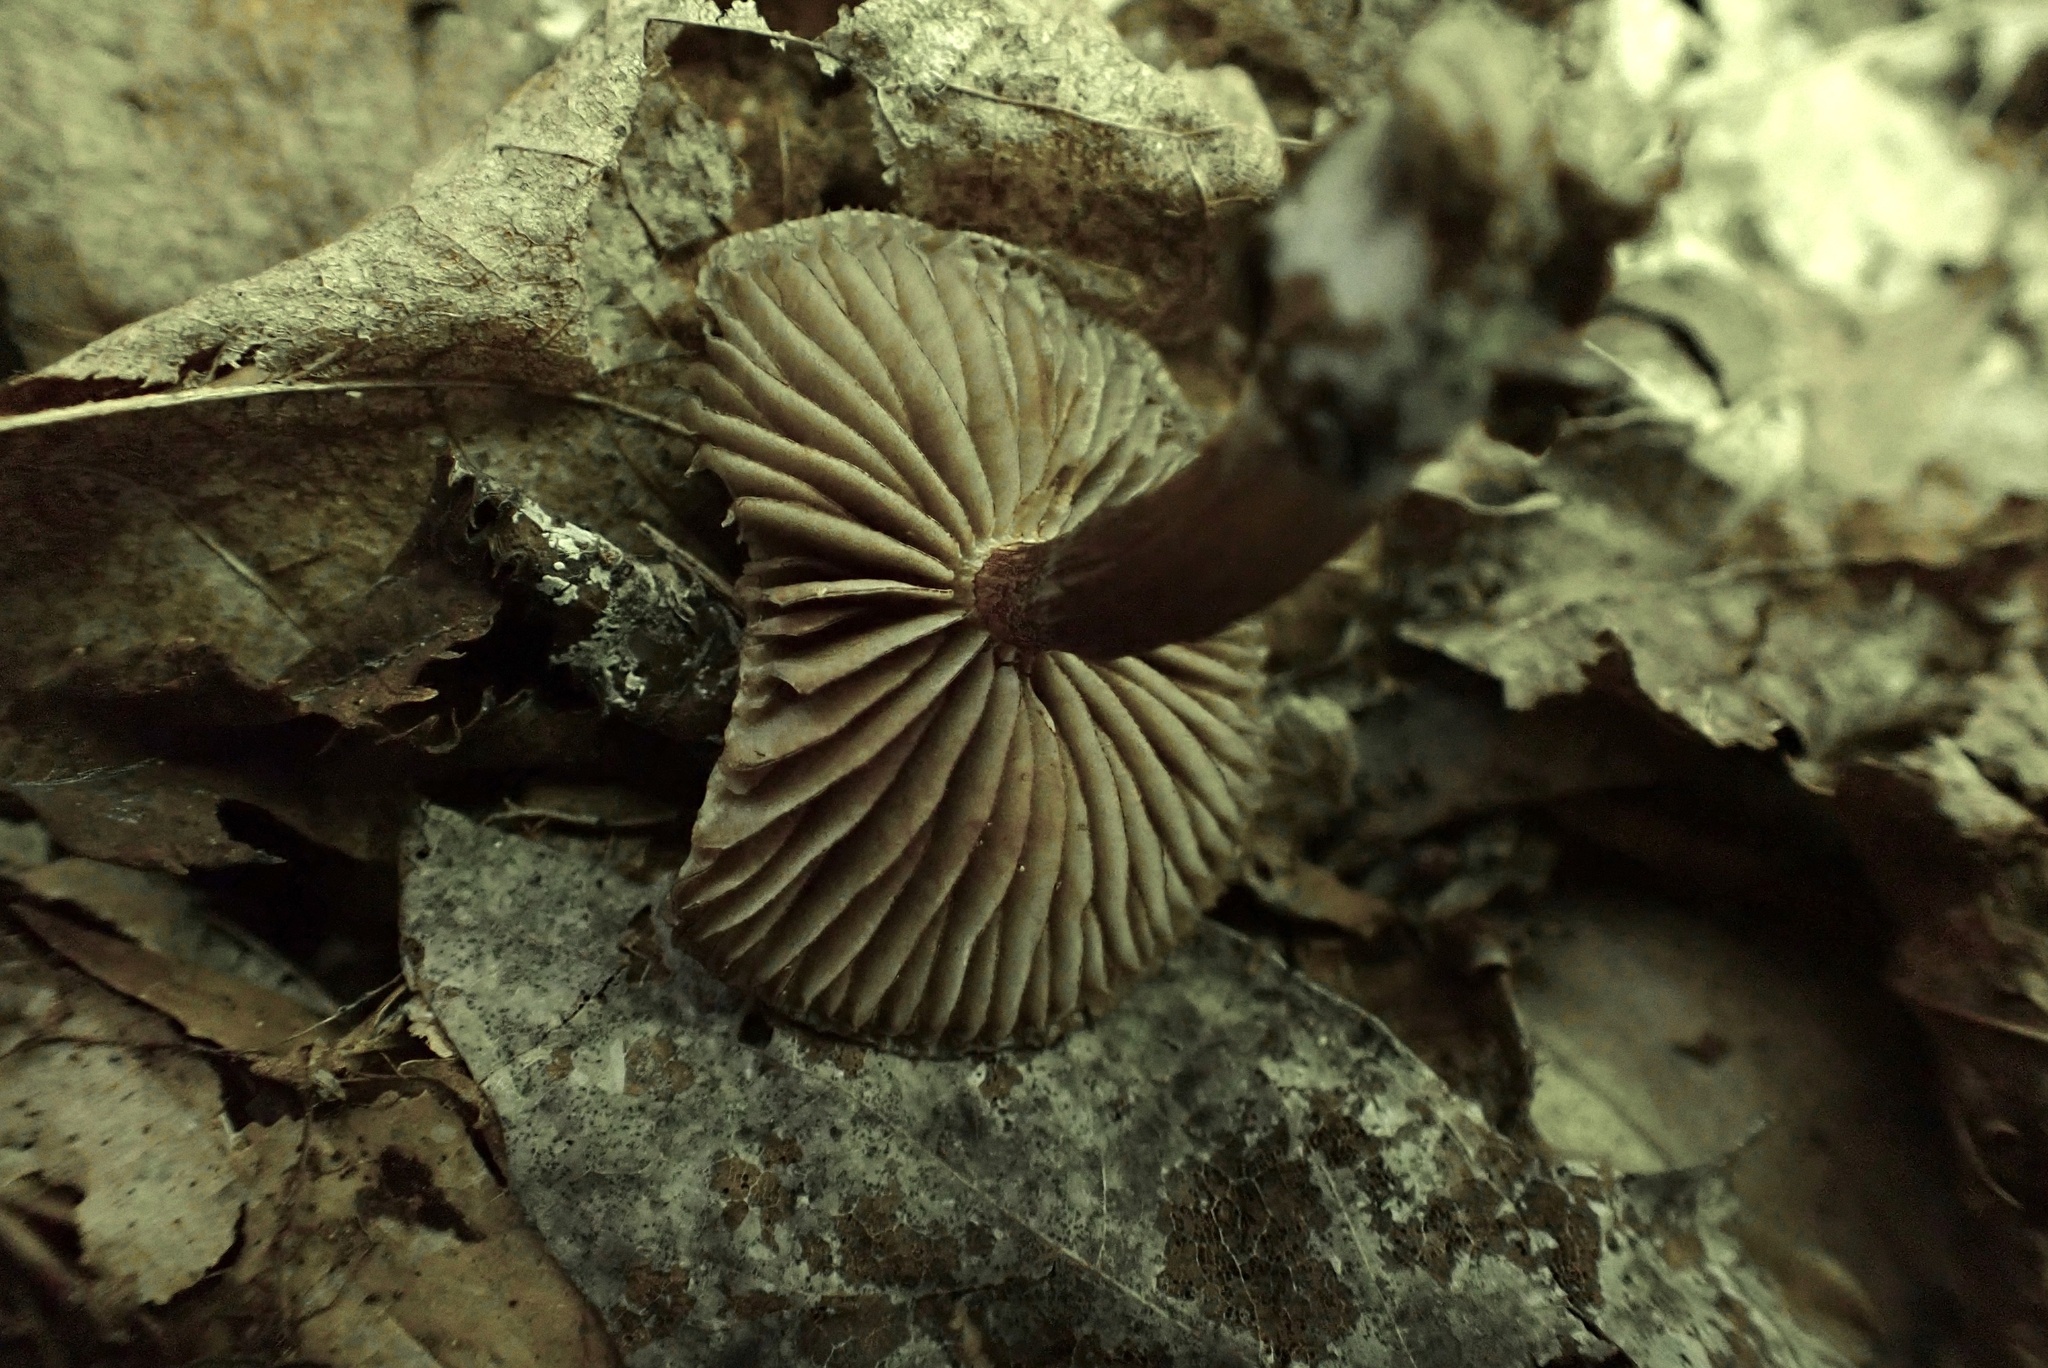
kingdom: Fungi
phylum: Basidiomycota
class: Agaricomycetes
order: Agaricales
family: Mycenaceae
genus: Mycena
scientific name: Mycena denticulata
